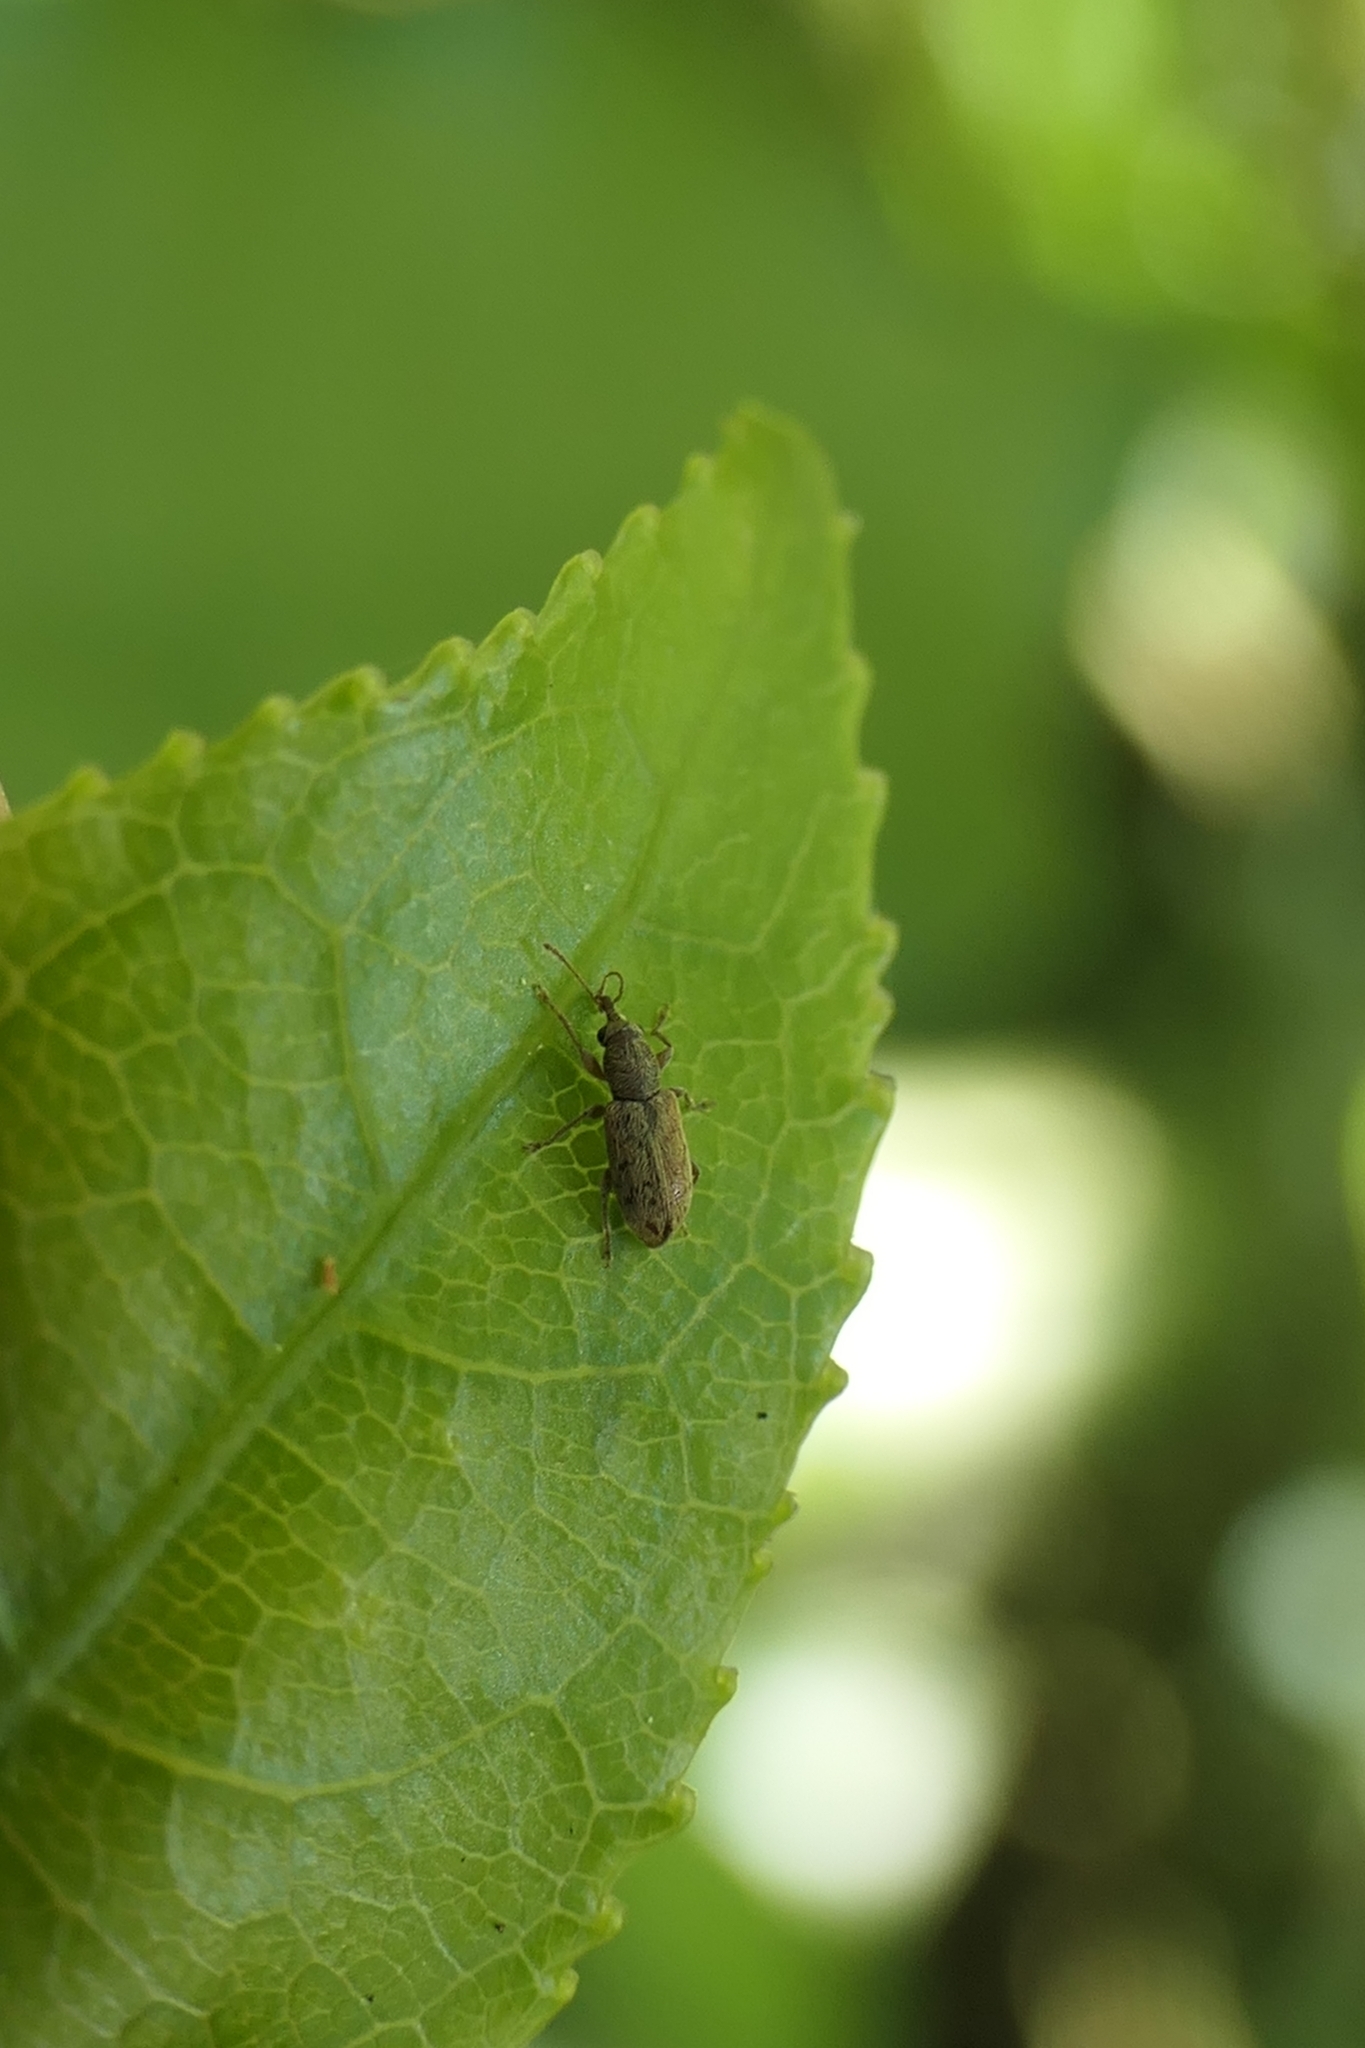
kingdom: Animalia
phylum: Arthropoda
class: Insecta
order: Coleoptera
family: Nemonychidae
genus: Rhinorhynchus
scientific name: Rhinorhynchus rufulus
